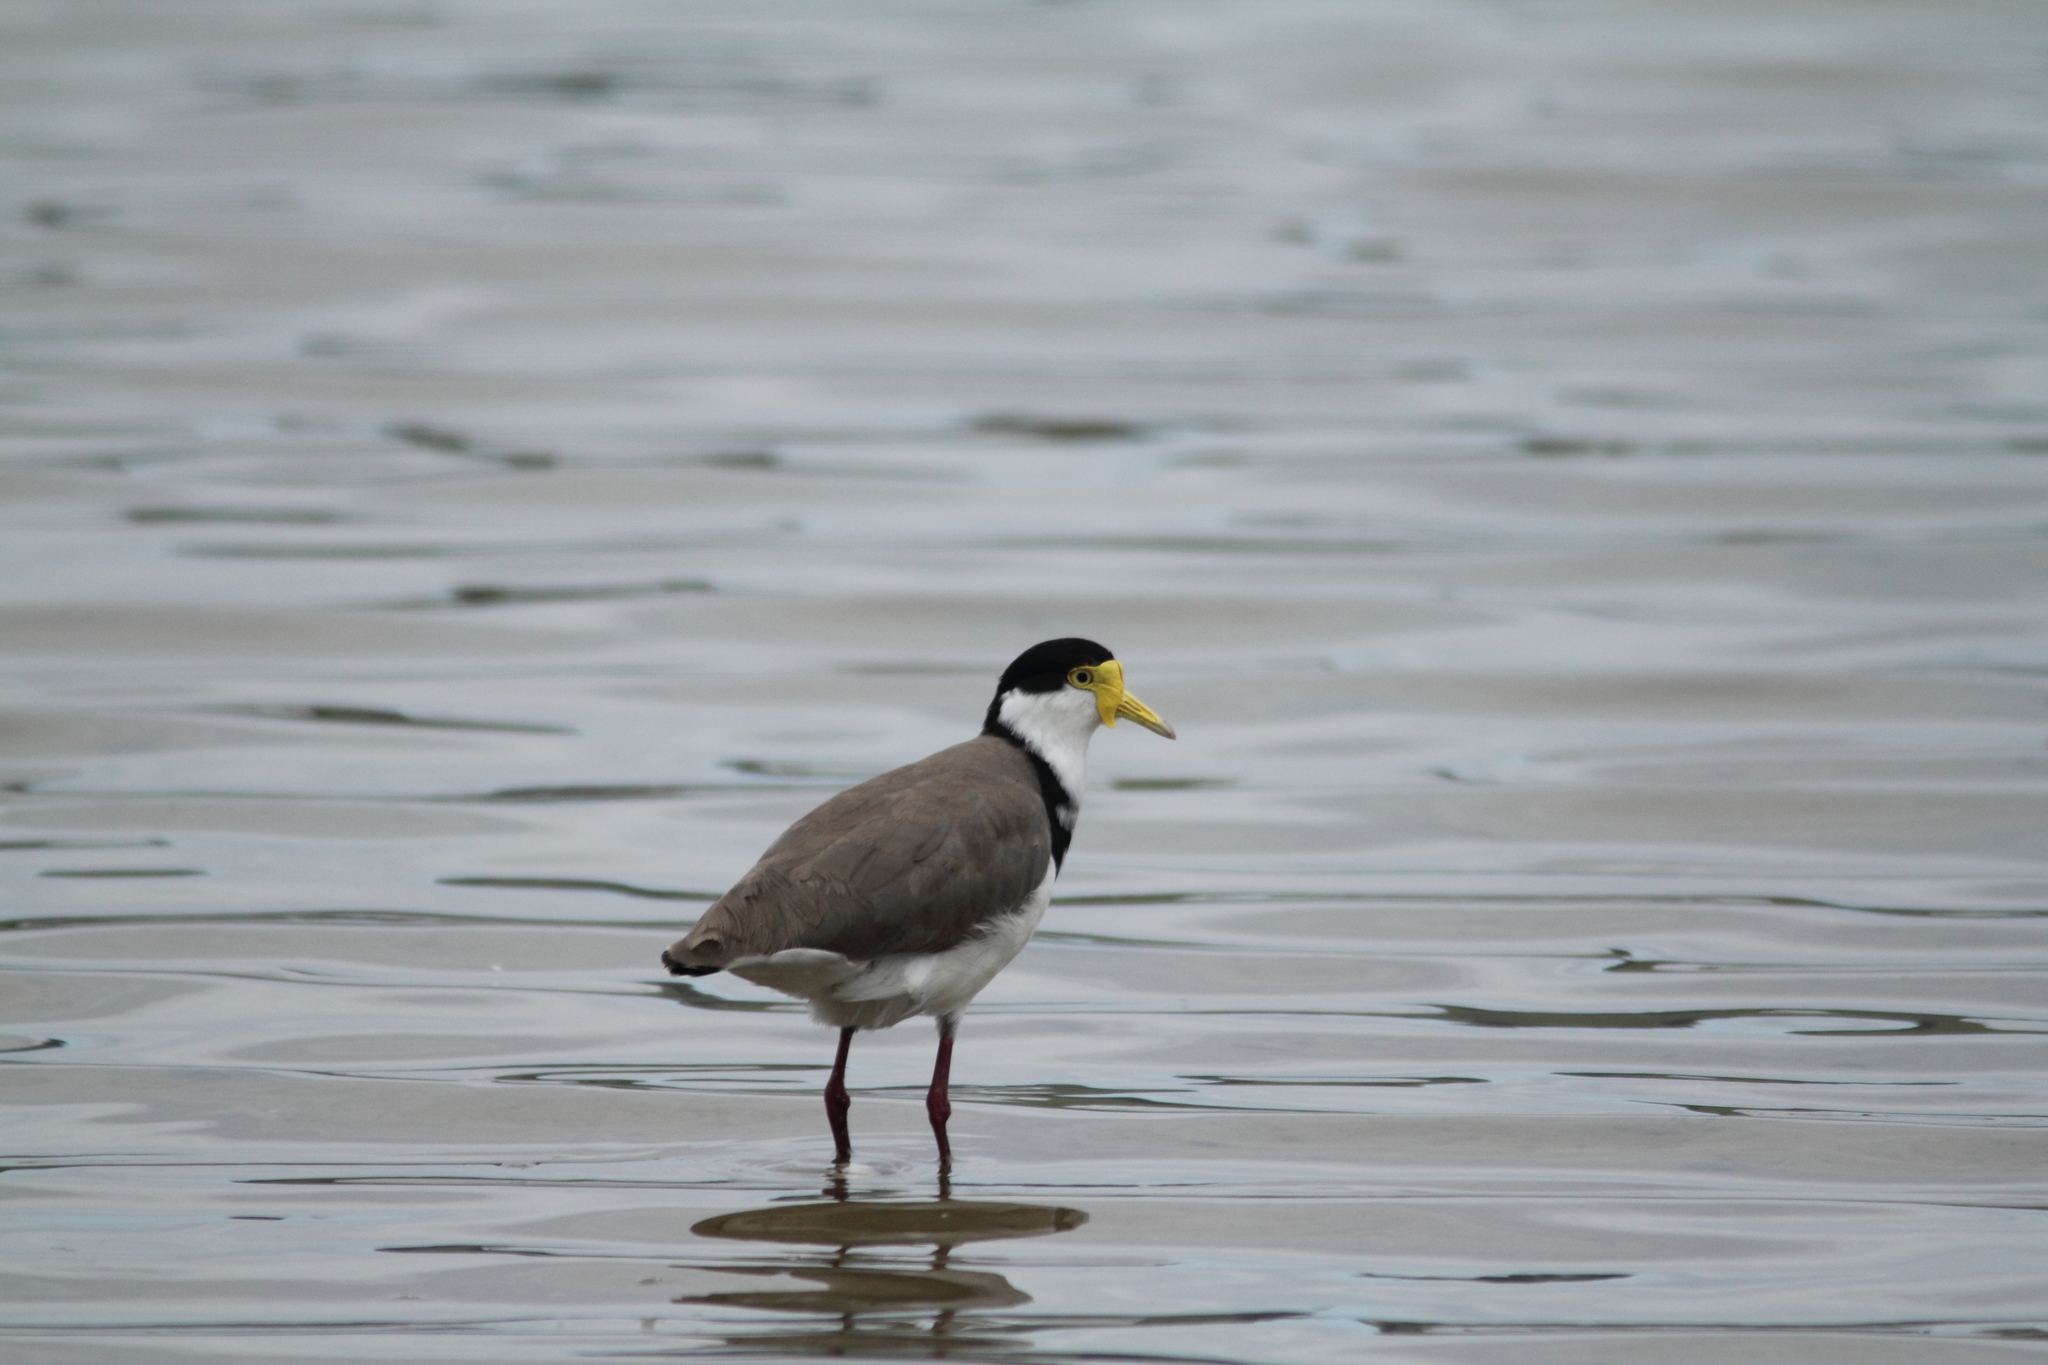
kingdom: Animalia
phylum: Chordata
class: Aves
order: Charadriiformes
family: Charadriidae
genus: Vanellus
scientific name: Vanellus miles
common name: Masked lapwing
